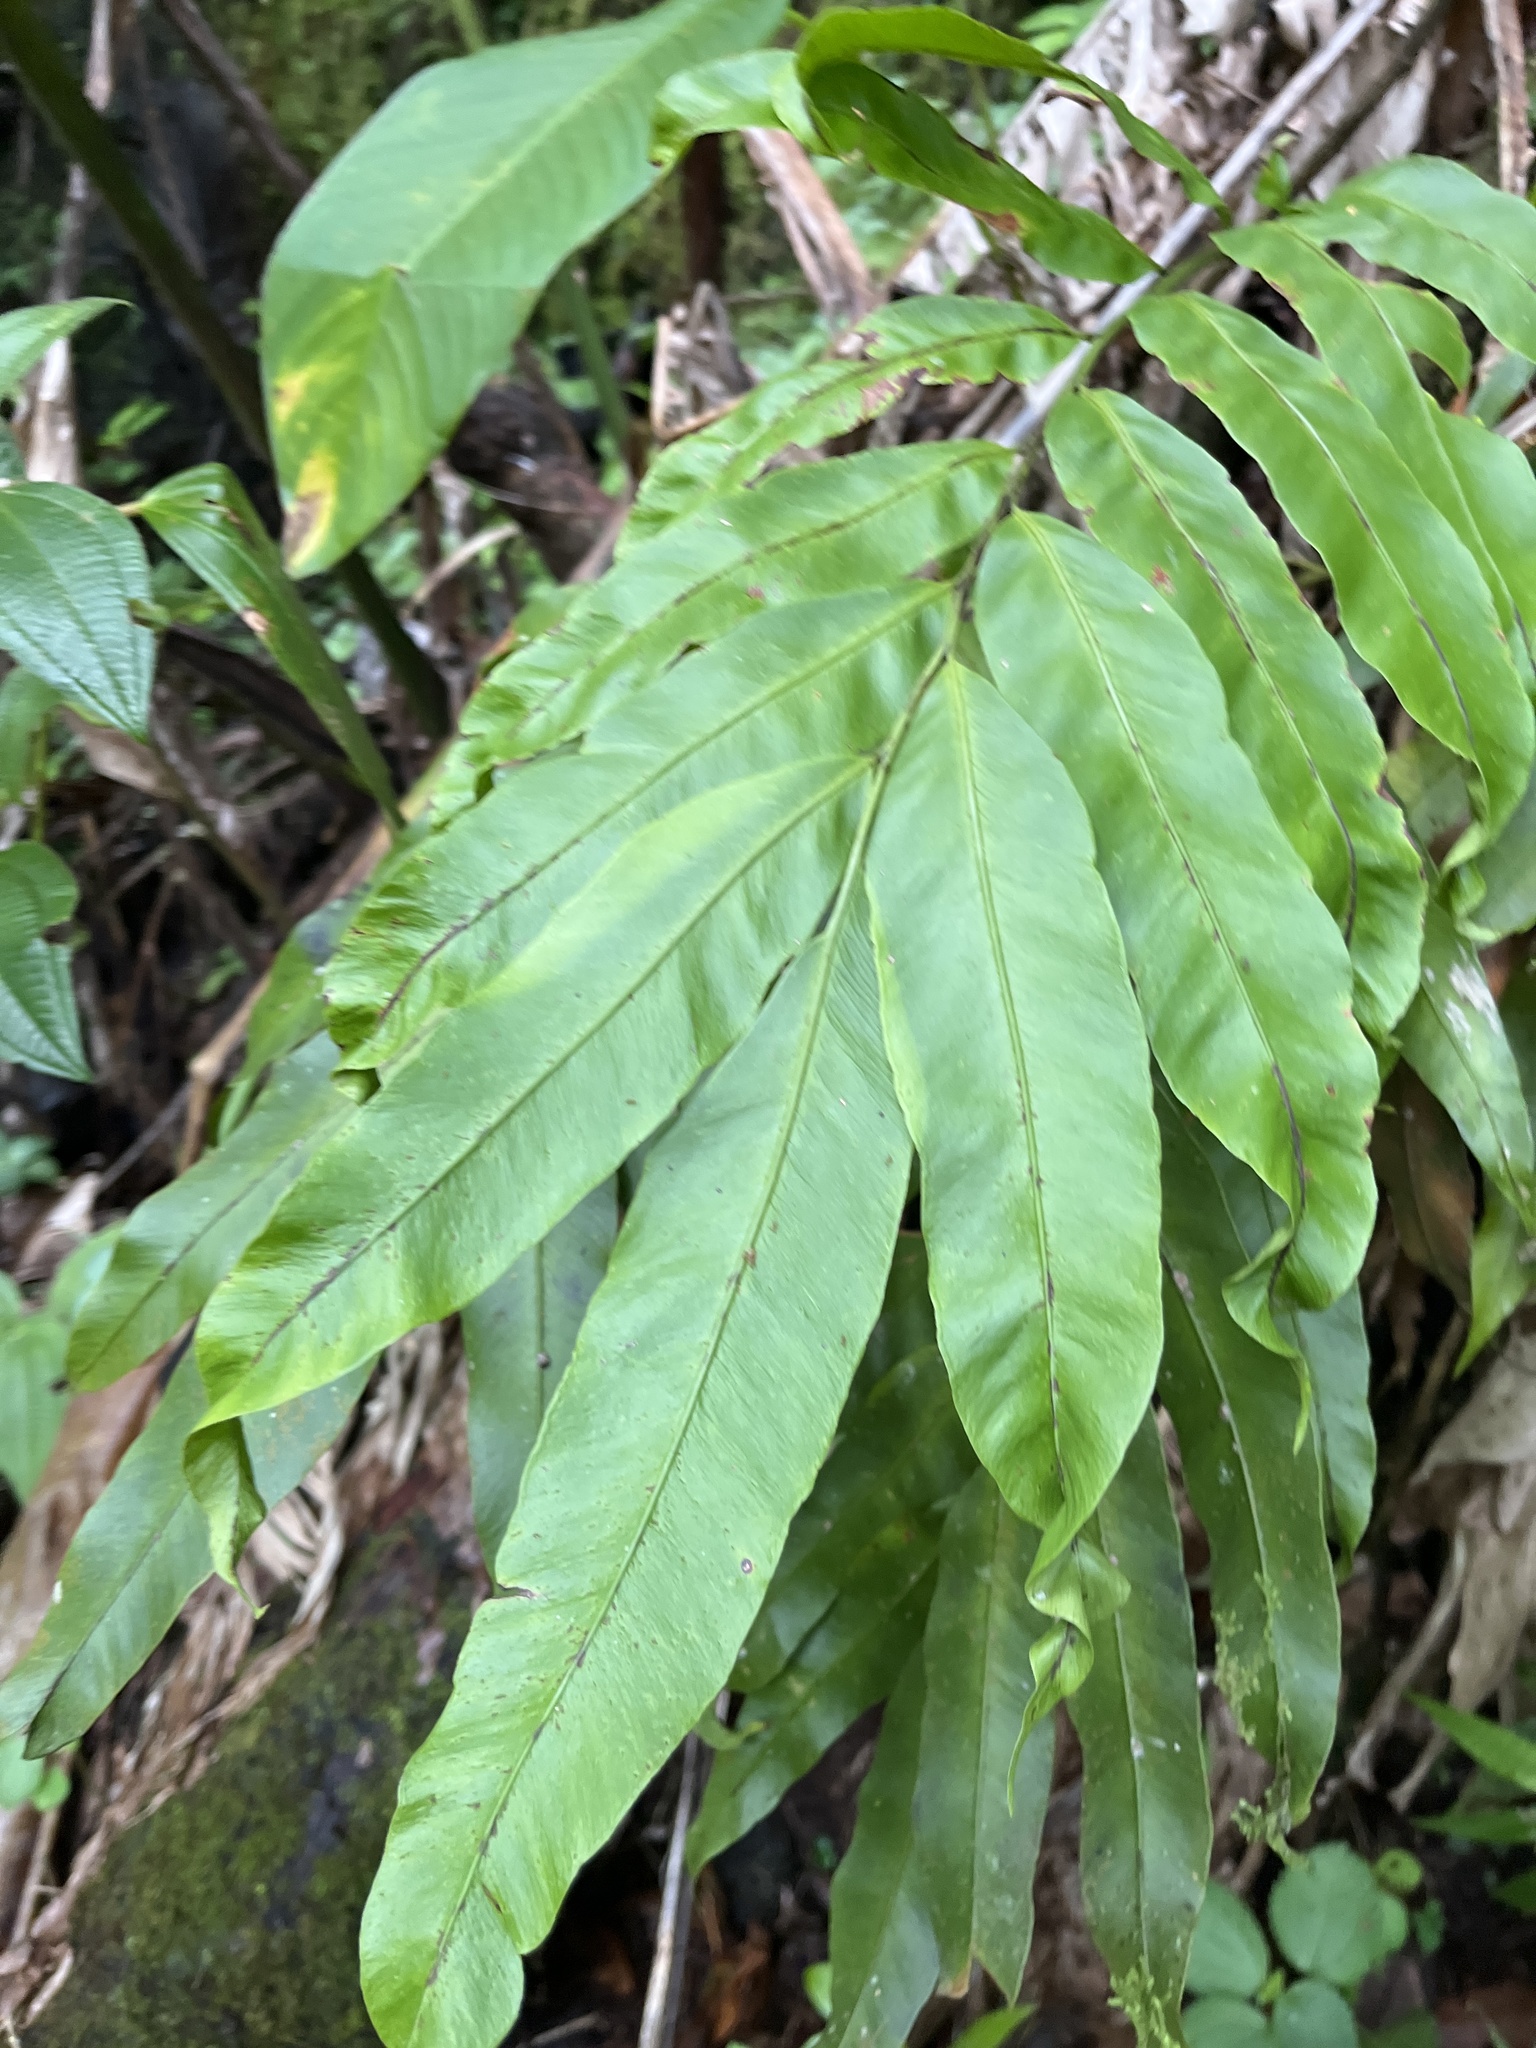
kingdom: Plantae
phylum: Tracheophyta
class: Polypodiopsida
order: Polypodiales
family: Dryopteridaceae
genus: Olfersia
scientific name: Olfersia cervina
